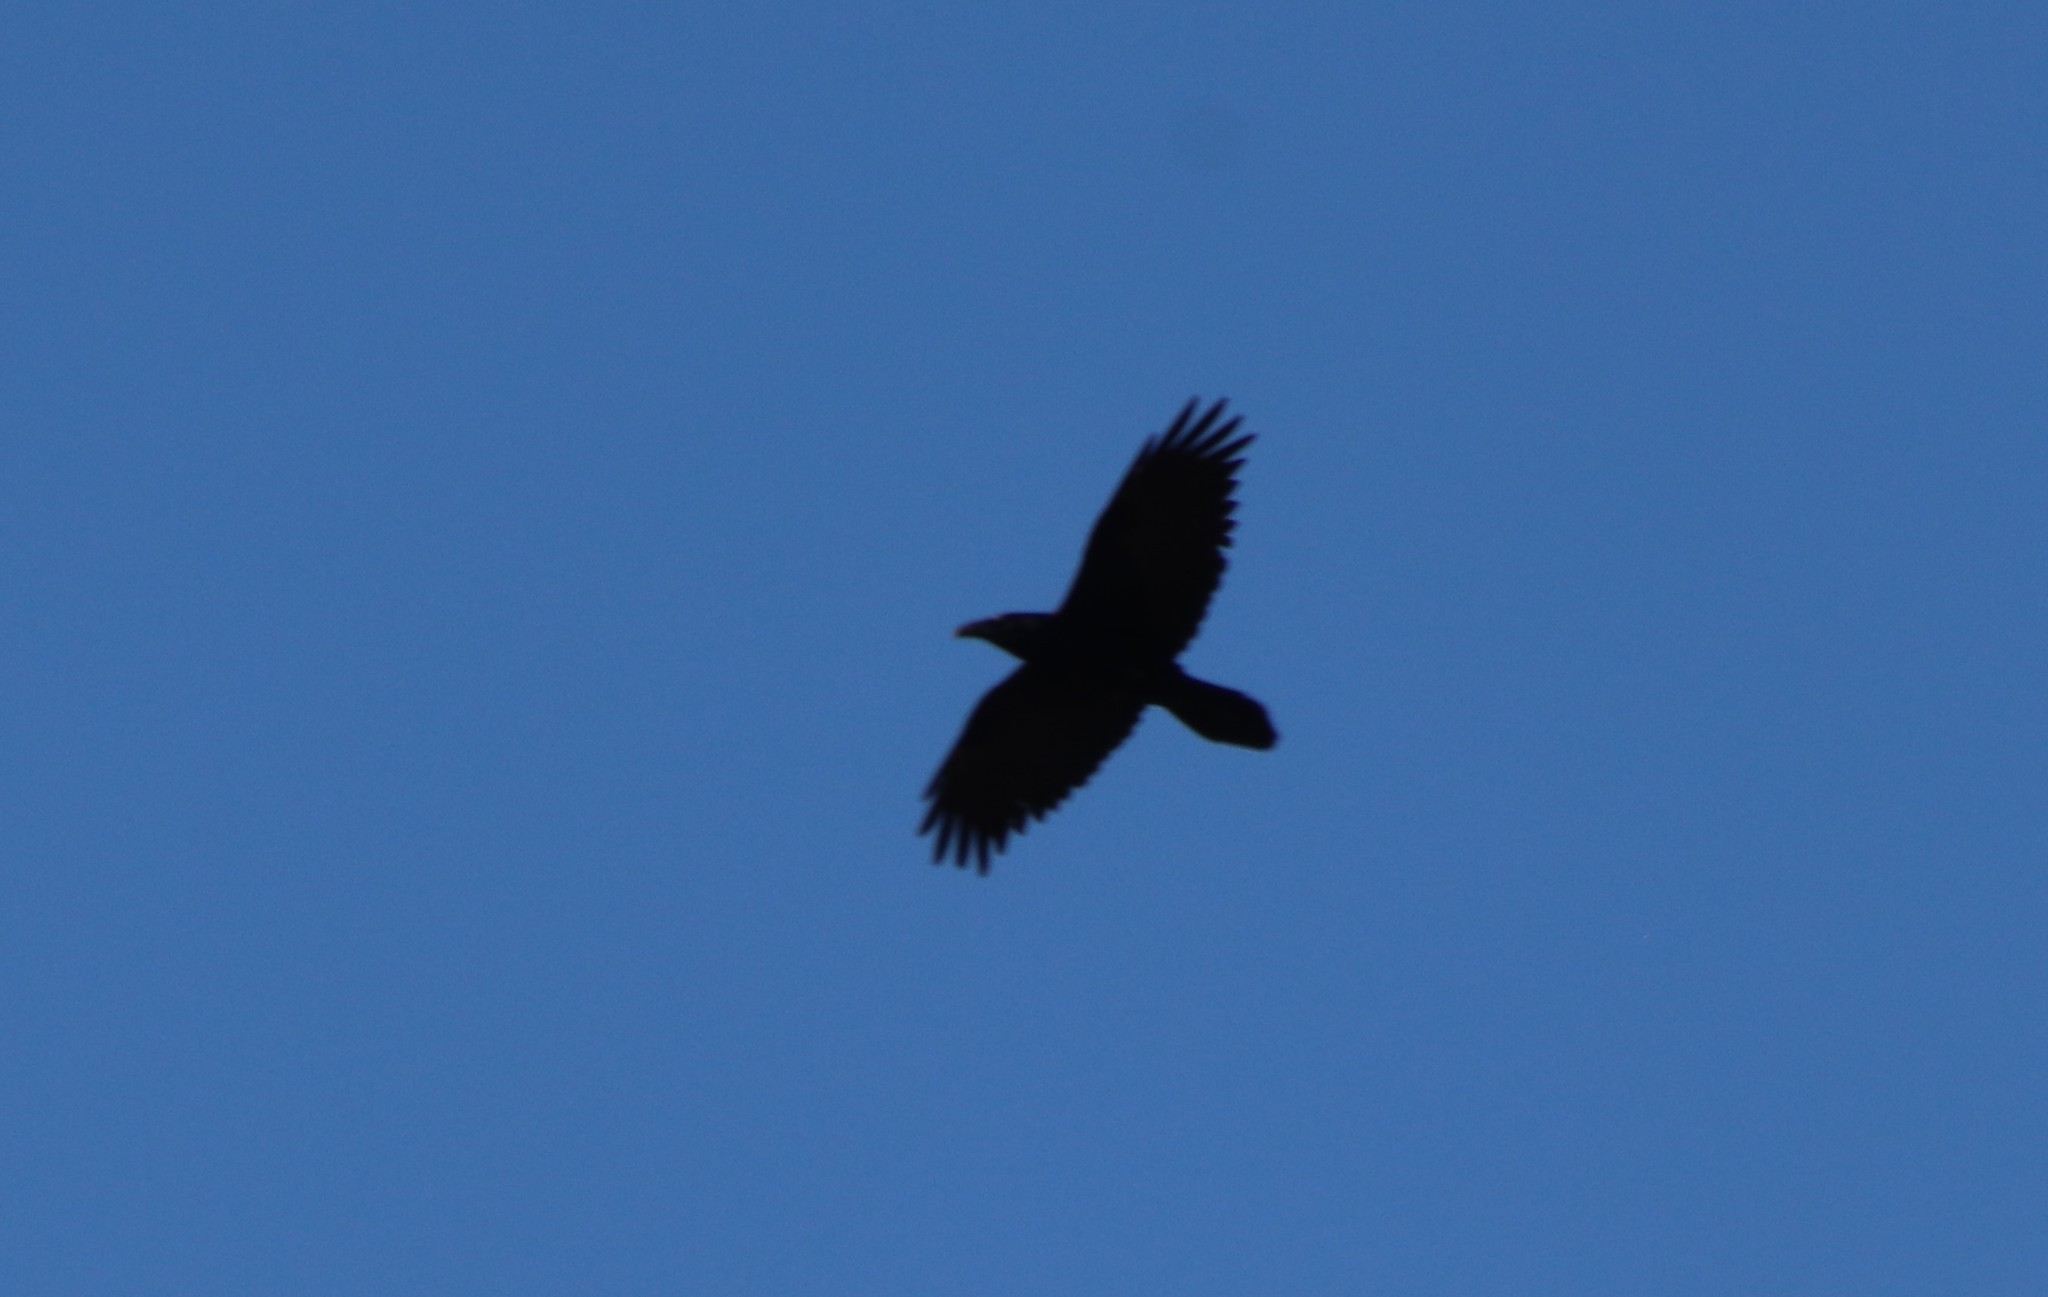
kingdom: Animalia
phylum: Chordata
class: Aves
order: Passeriformes
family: Corvidae
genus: Corvus
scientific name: Corvus corax
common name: Common raven
